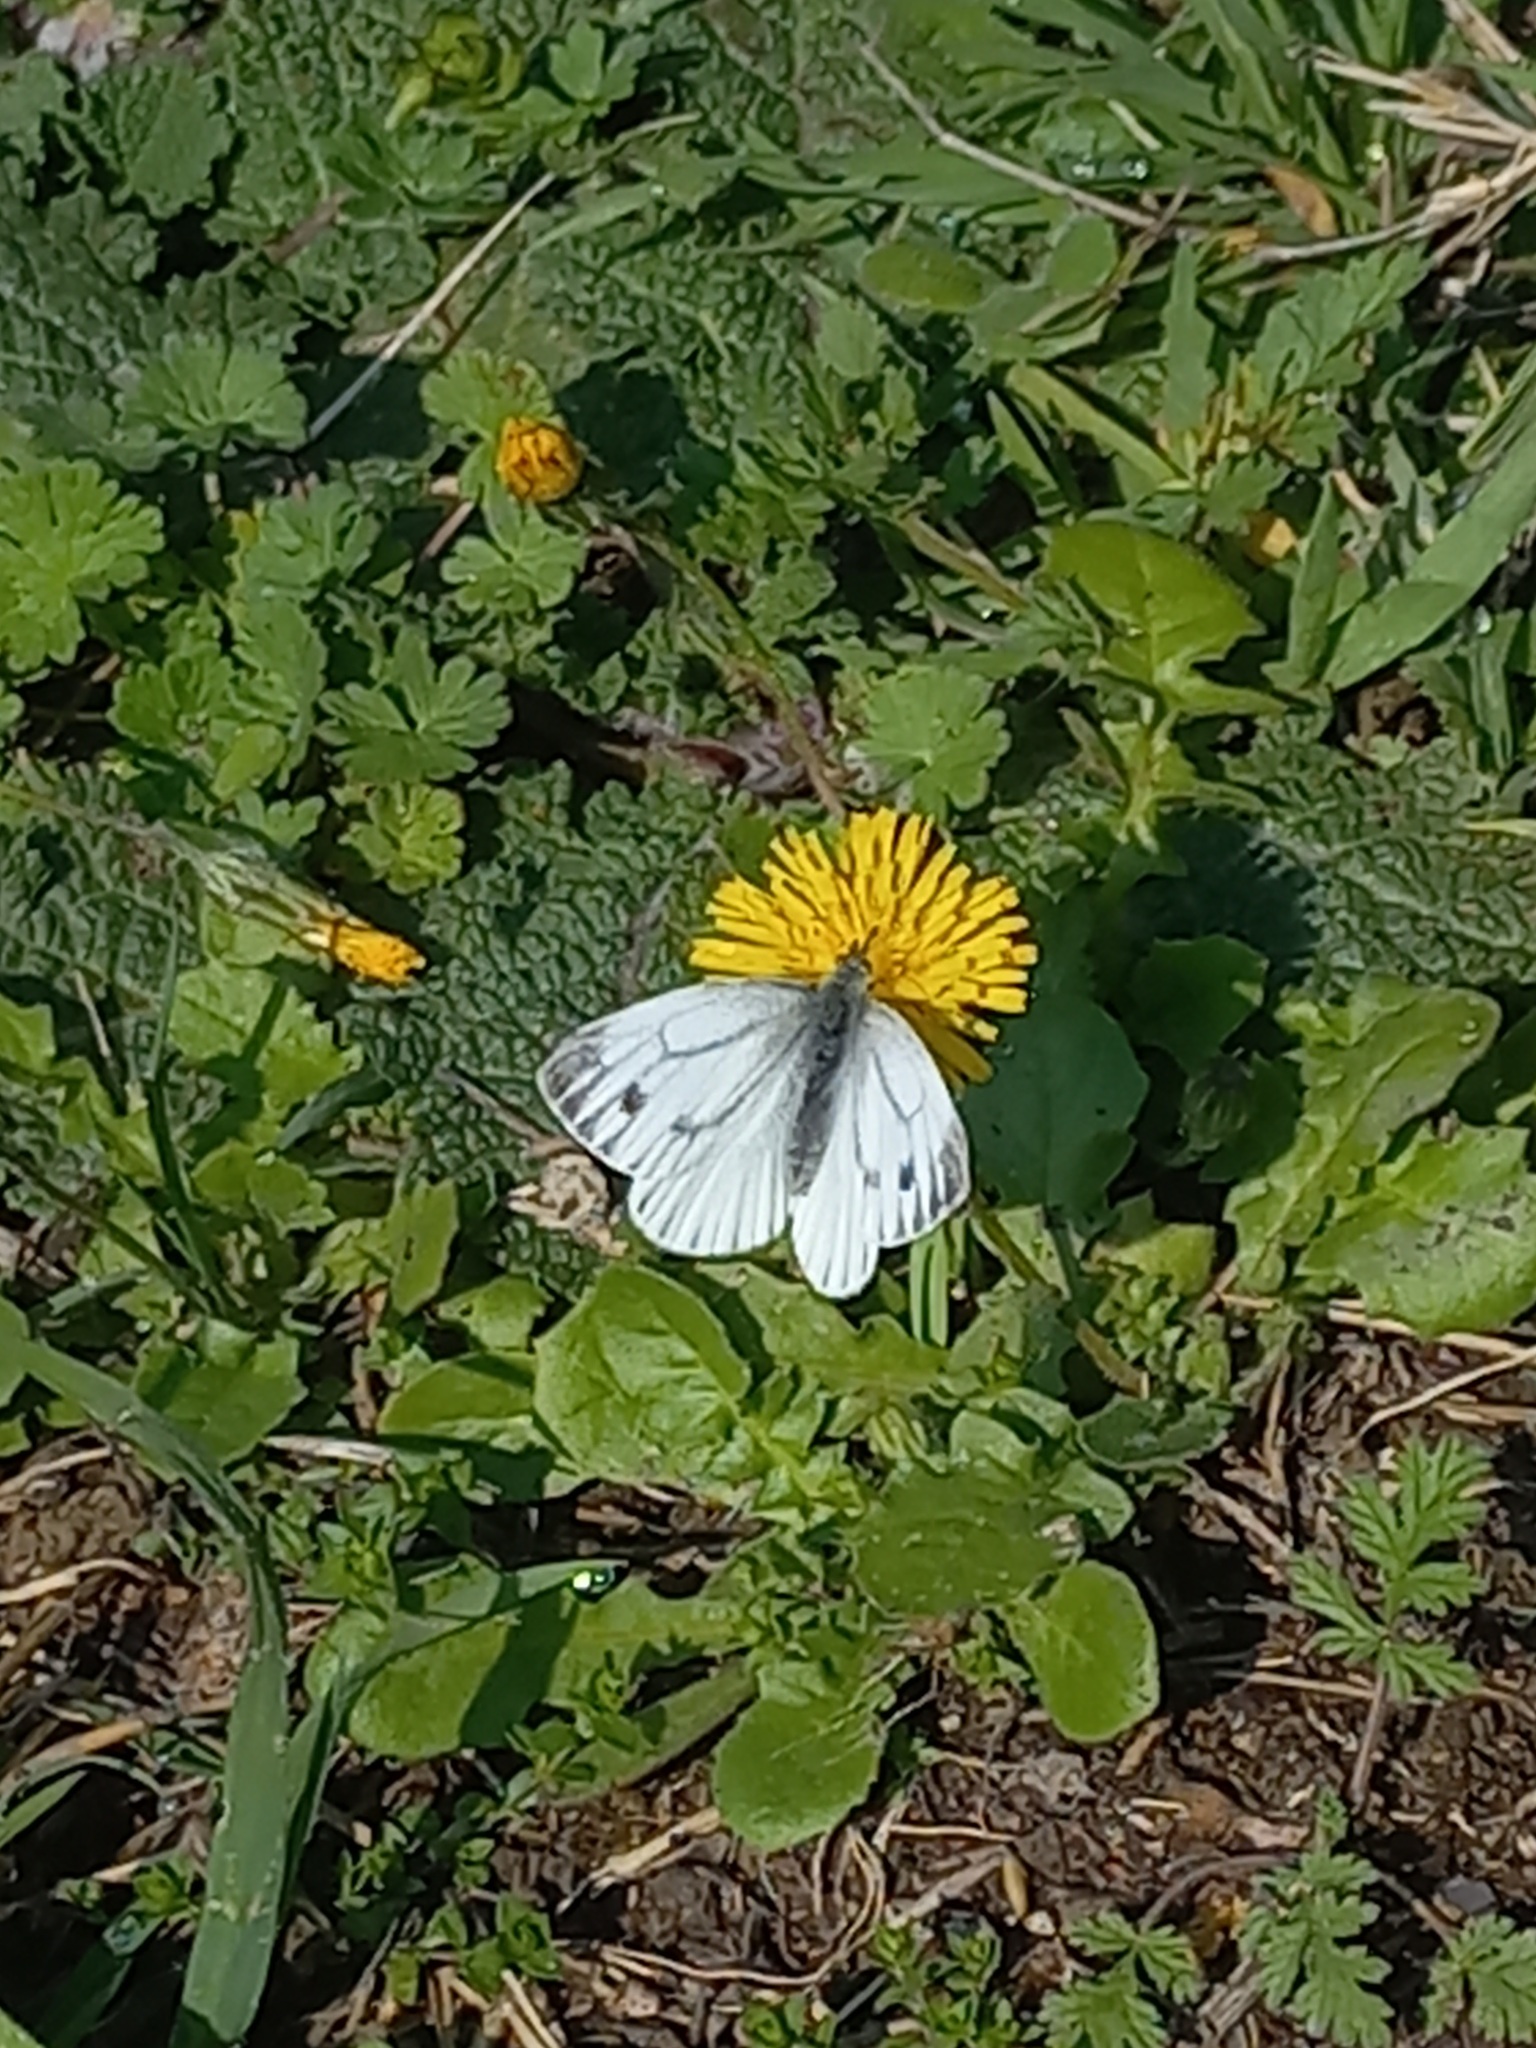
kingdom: Animalia
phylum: Arthropoda
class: Insecta
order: Lepidoptera
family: Pieridae
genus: Pieris
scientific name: Pieris napi
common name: Green-veined white
